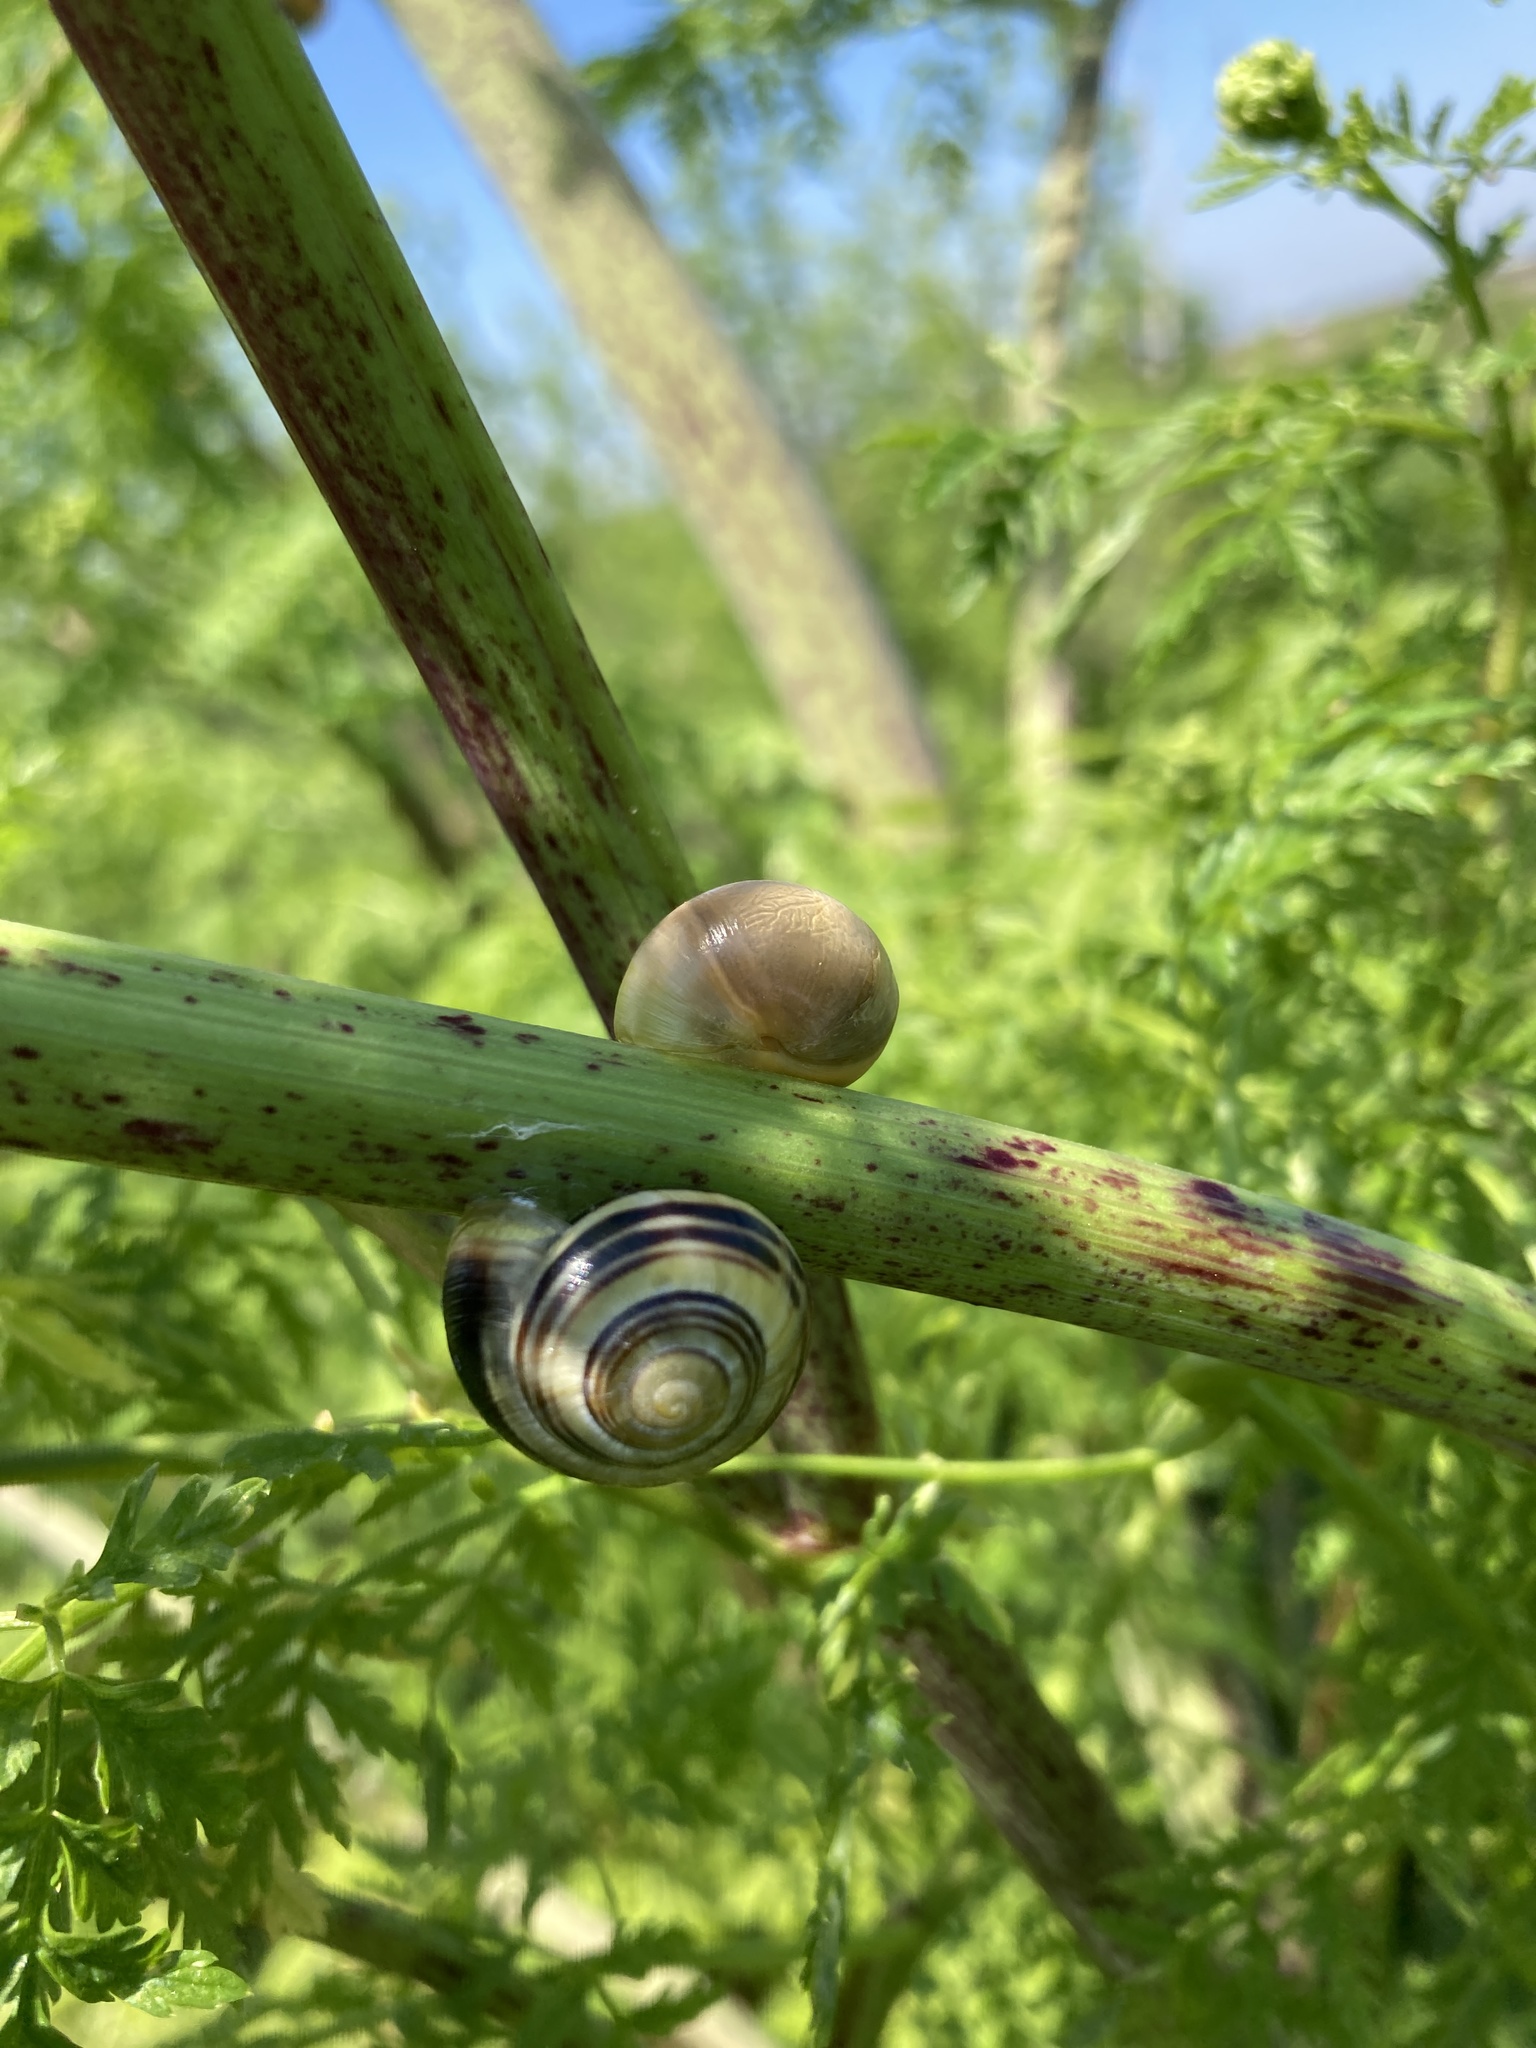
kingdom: Animalia
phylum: Mollusca
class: Gastropoda
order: Stylommatophora
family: Helicidae
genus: Cepaea
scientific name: Cepaea
